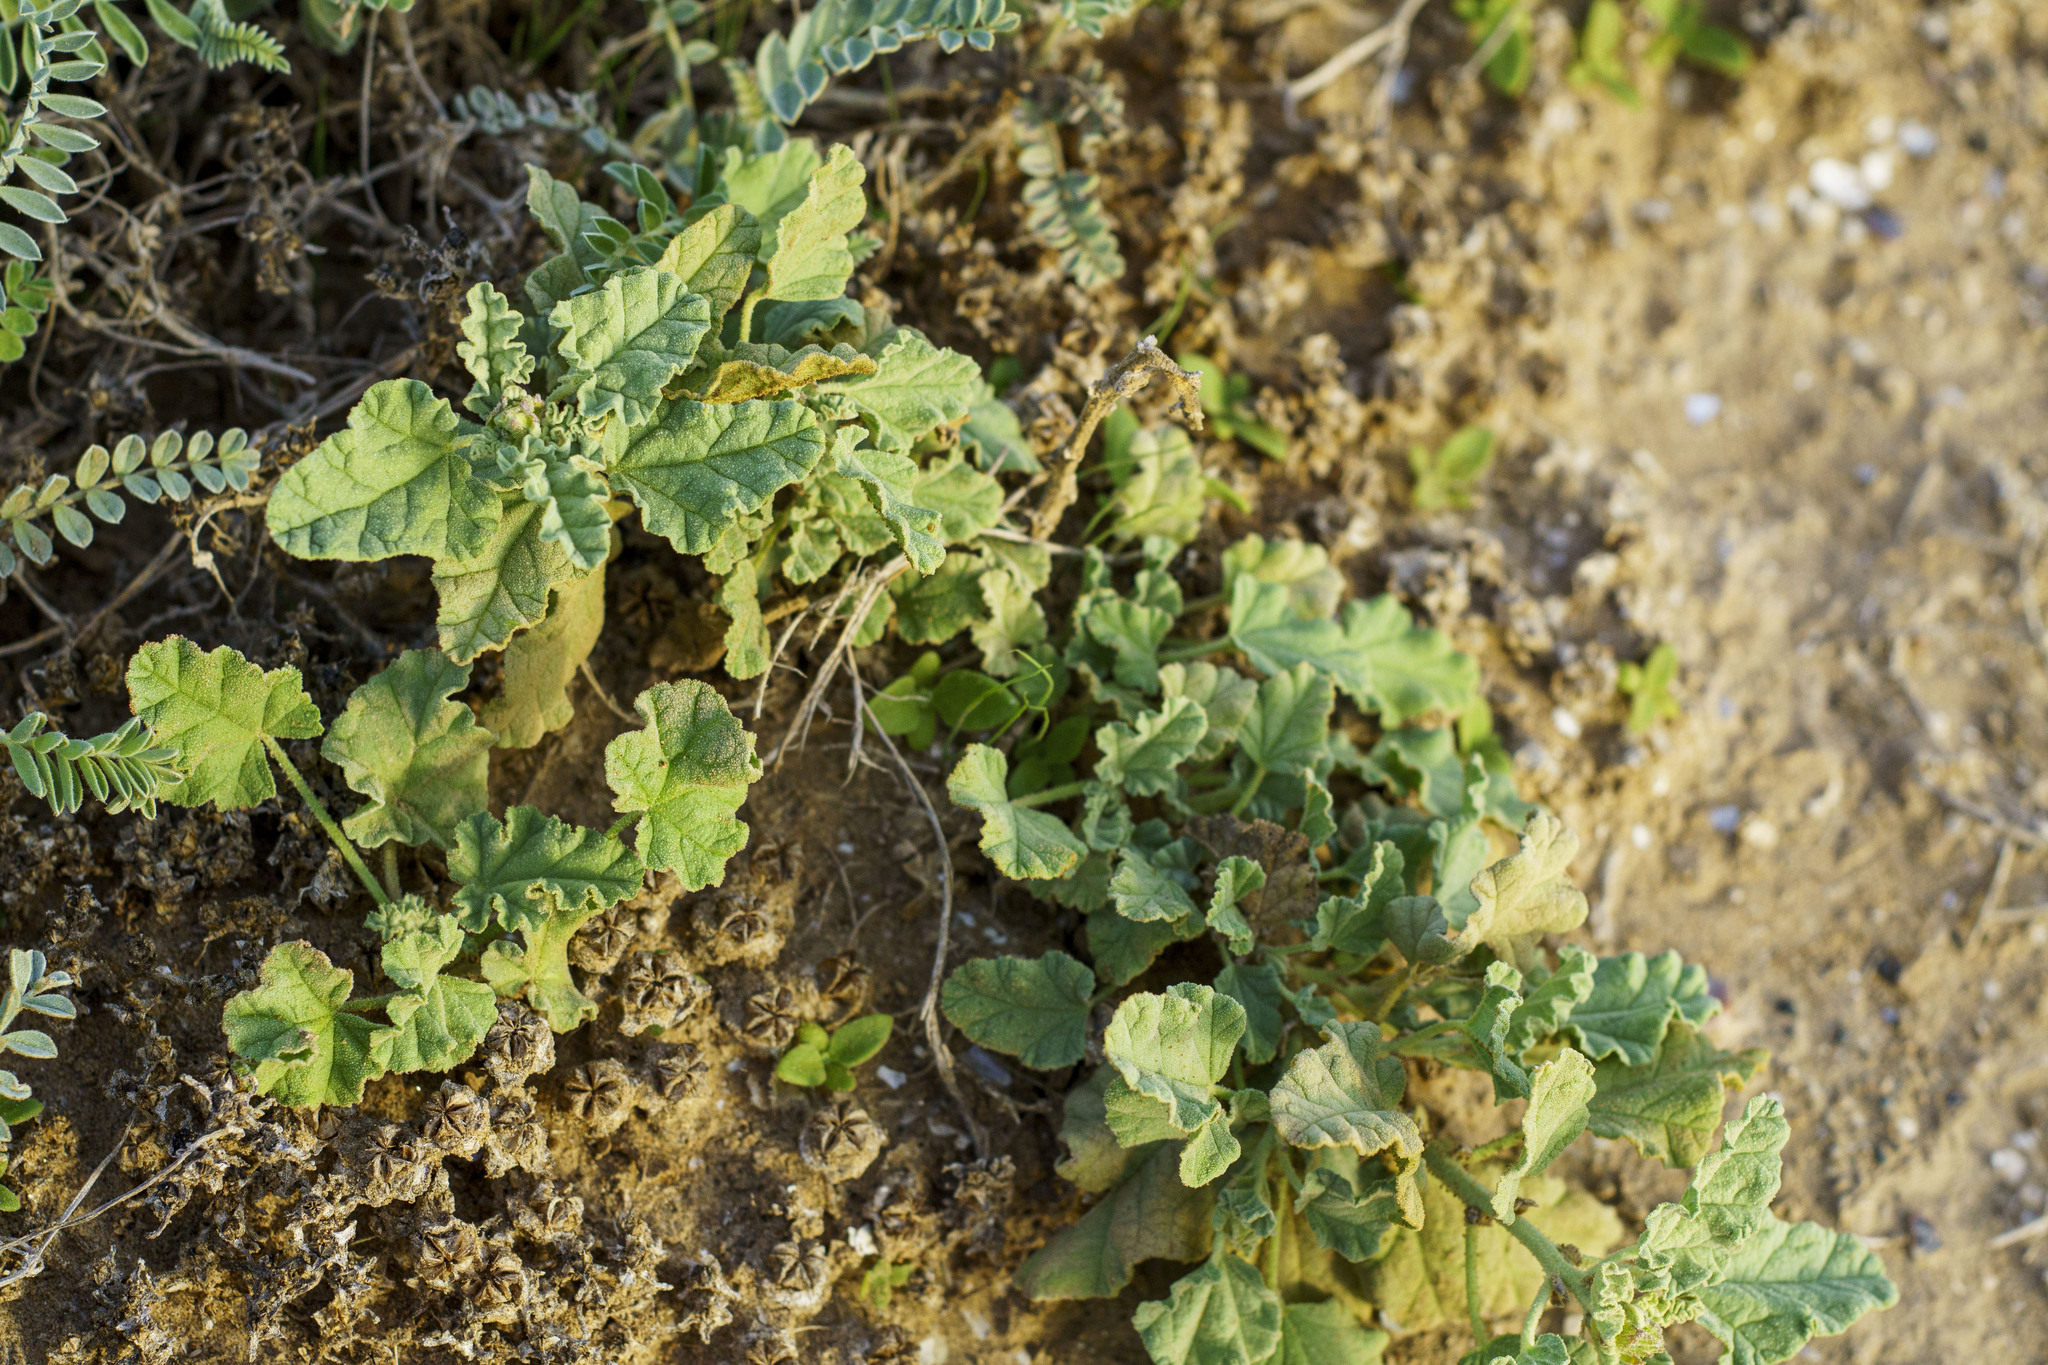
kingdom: Plantae
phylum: Tracheophyta
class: Magnoliopsida
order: Malvales
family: Malvaceae
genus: Sphaeralcea
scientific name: Sphaeralcea ambigua
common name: Apricot globe-mallow
